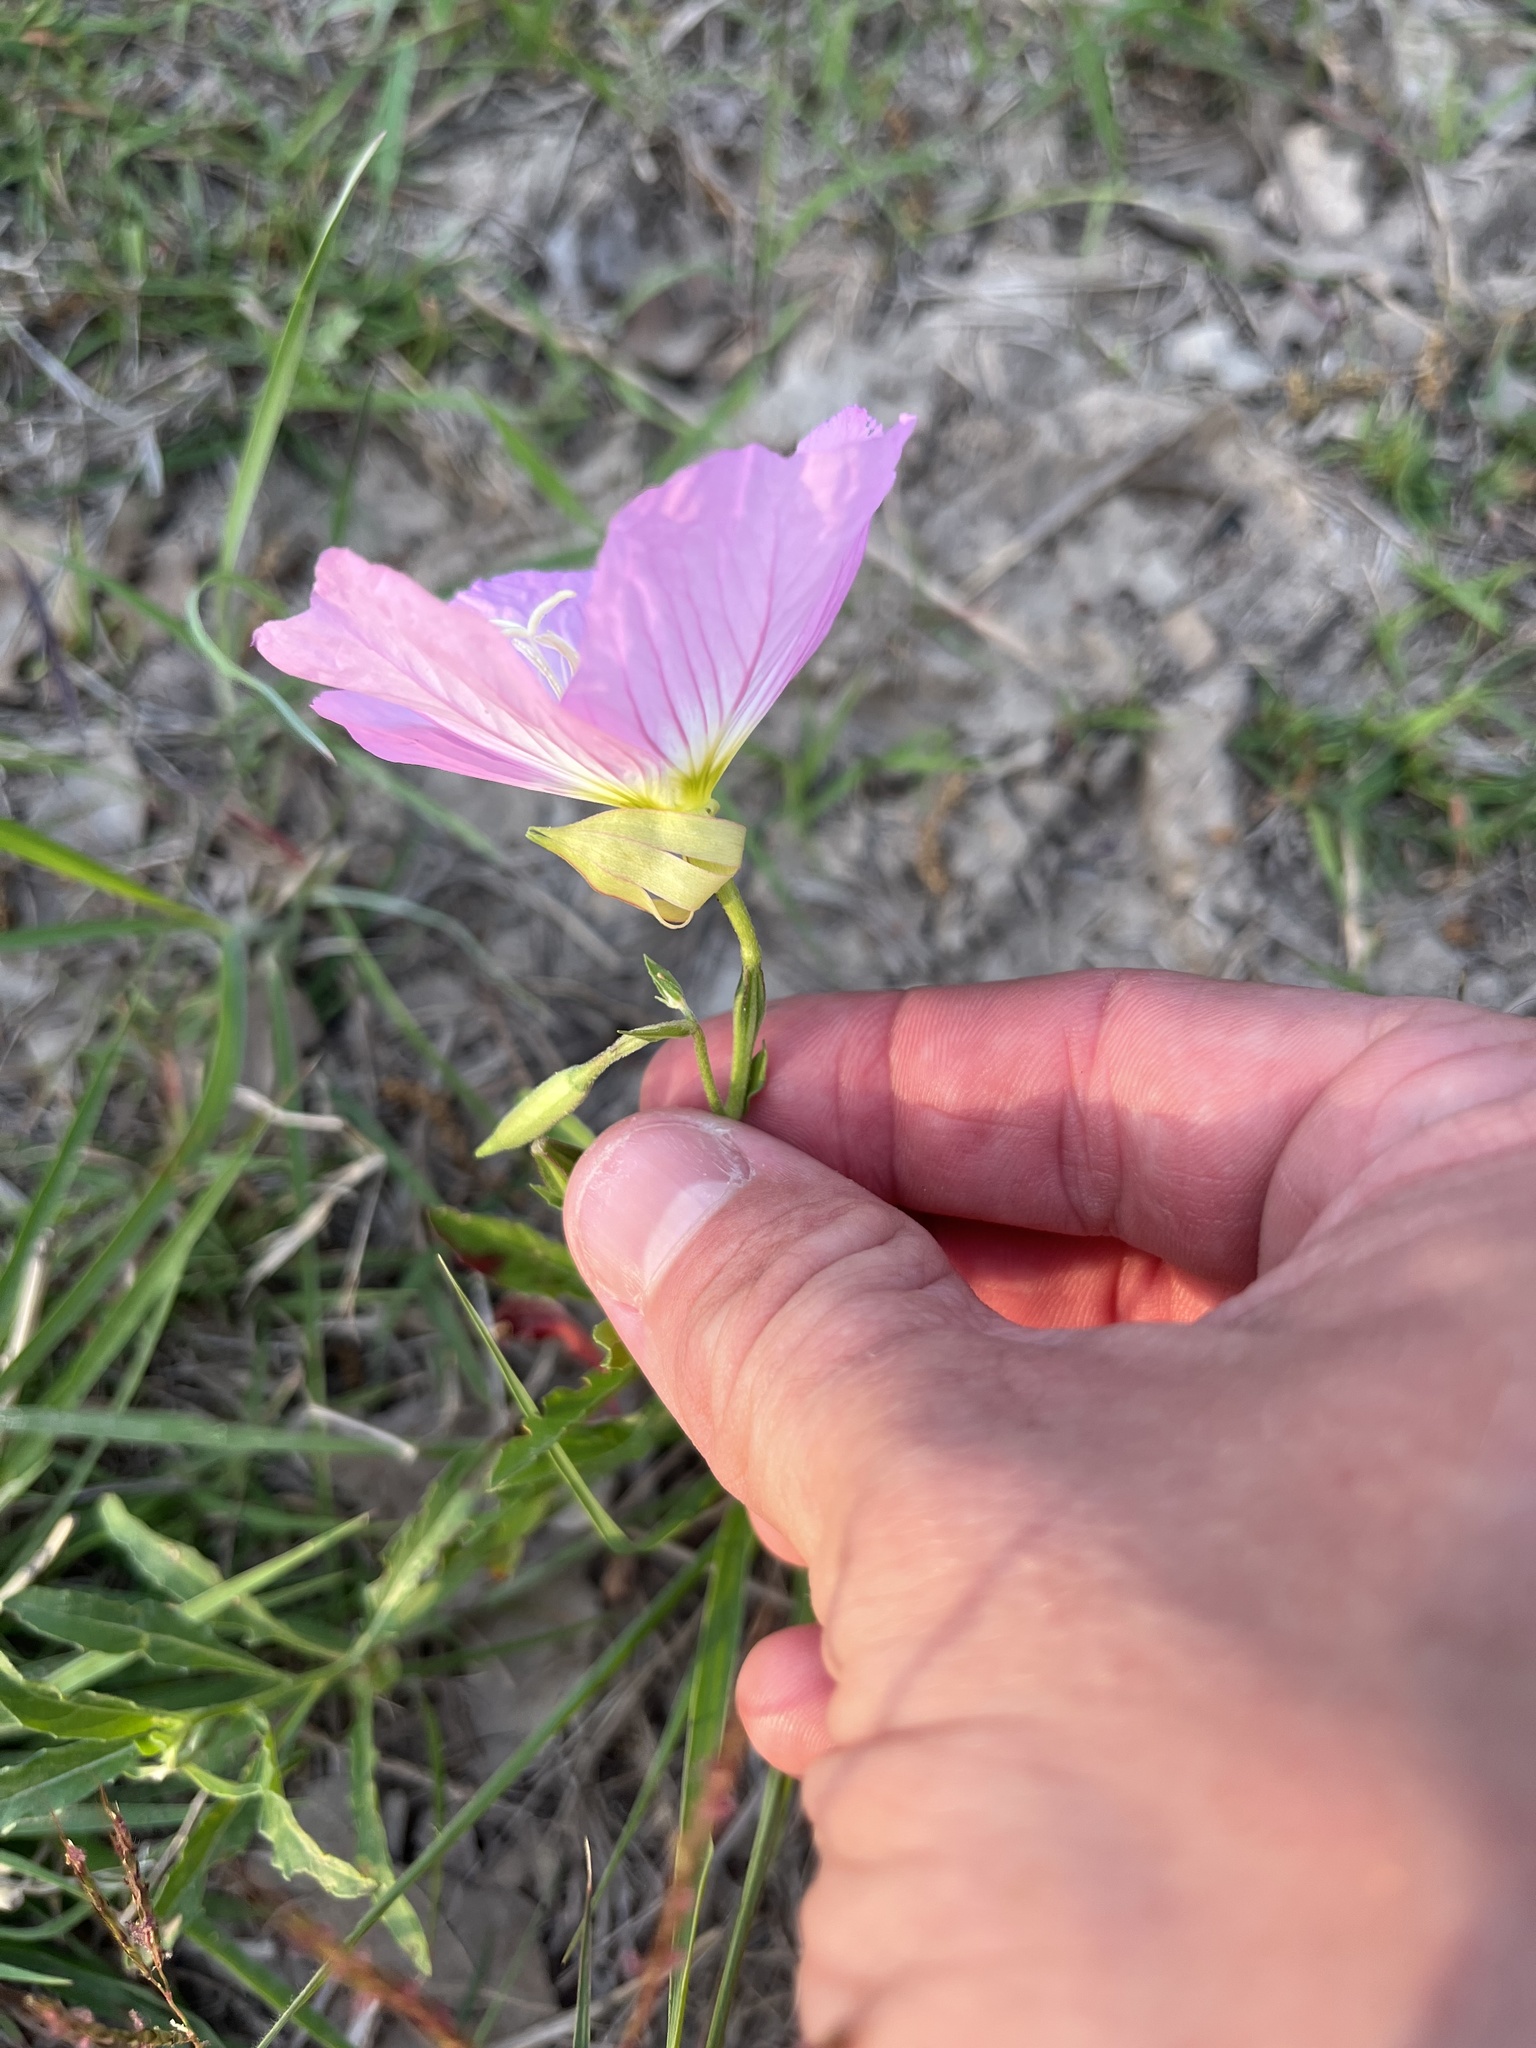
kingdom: Plantae
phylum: Tracheophyta
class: Magnoliopsida
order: Myrtales
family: Onagraceae
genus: Oenothera
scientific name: Oenothera speciosa
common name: White evening-primrose
